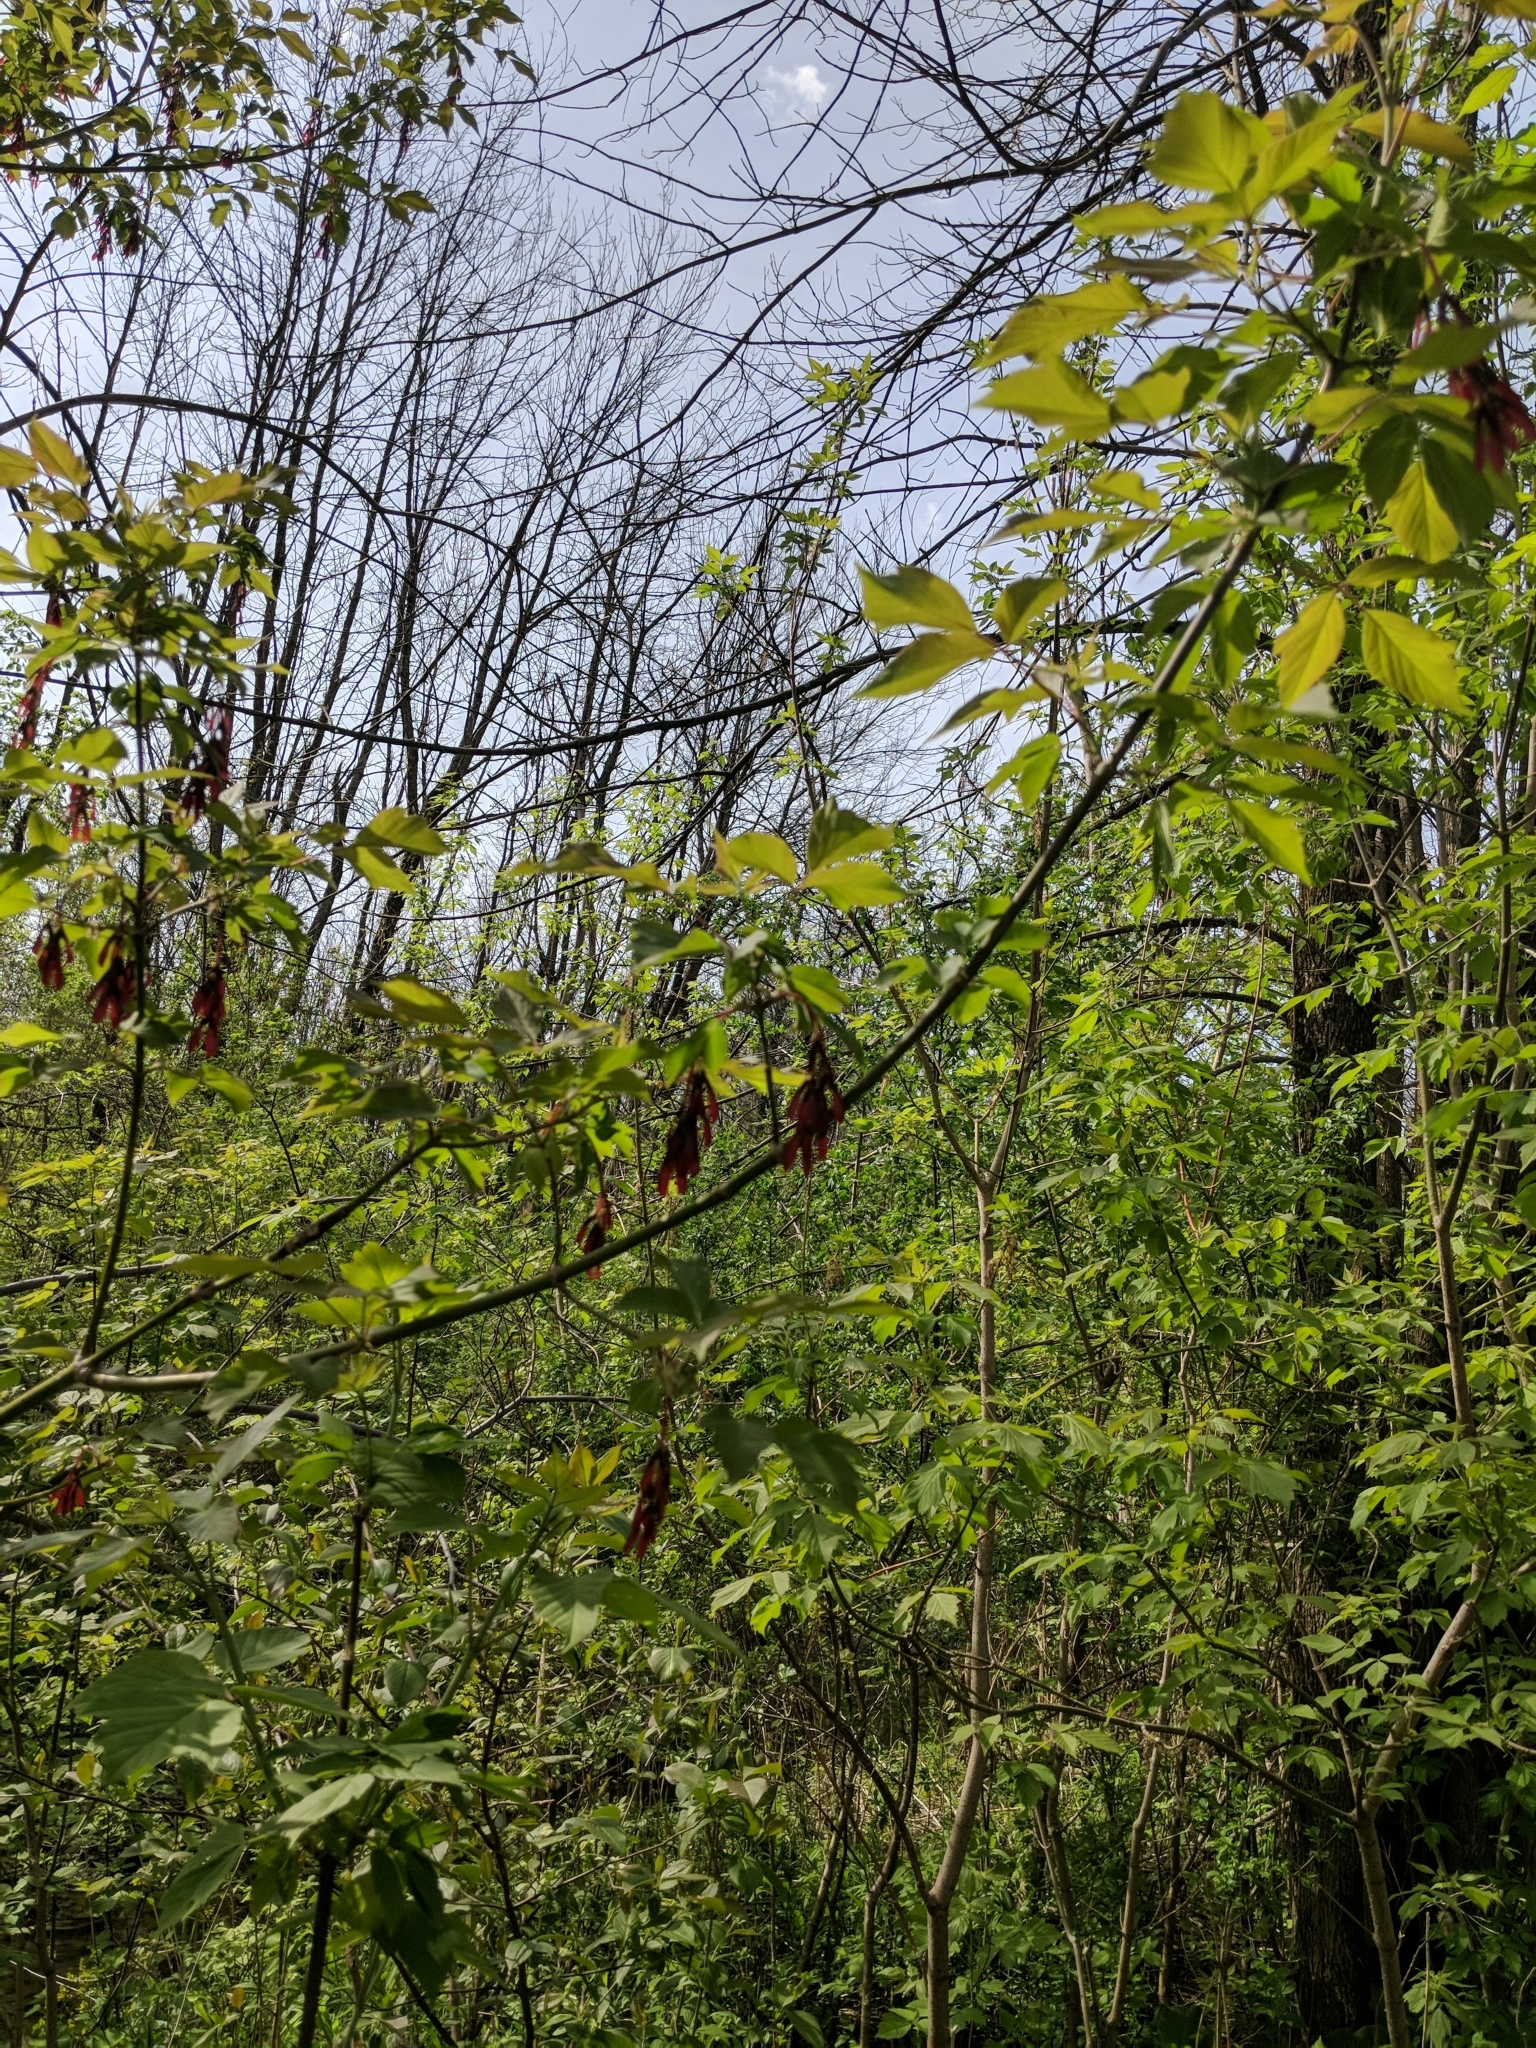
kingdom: Plantae
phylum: Tracheophyta
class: Magnoliopsida
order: Sapindales
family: Sapindaceae
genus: Acer
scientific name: Acer negundo
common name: Ashleaf maple
